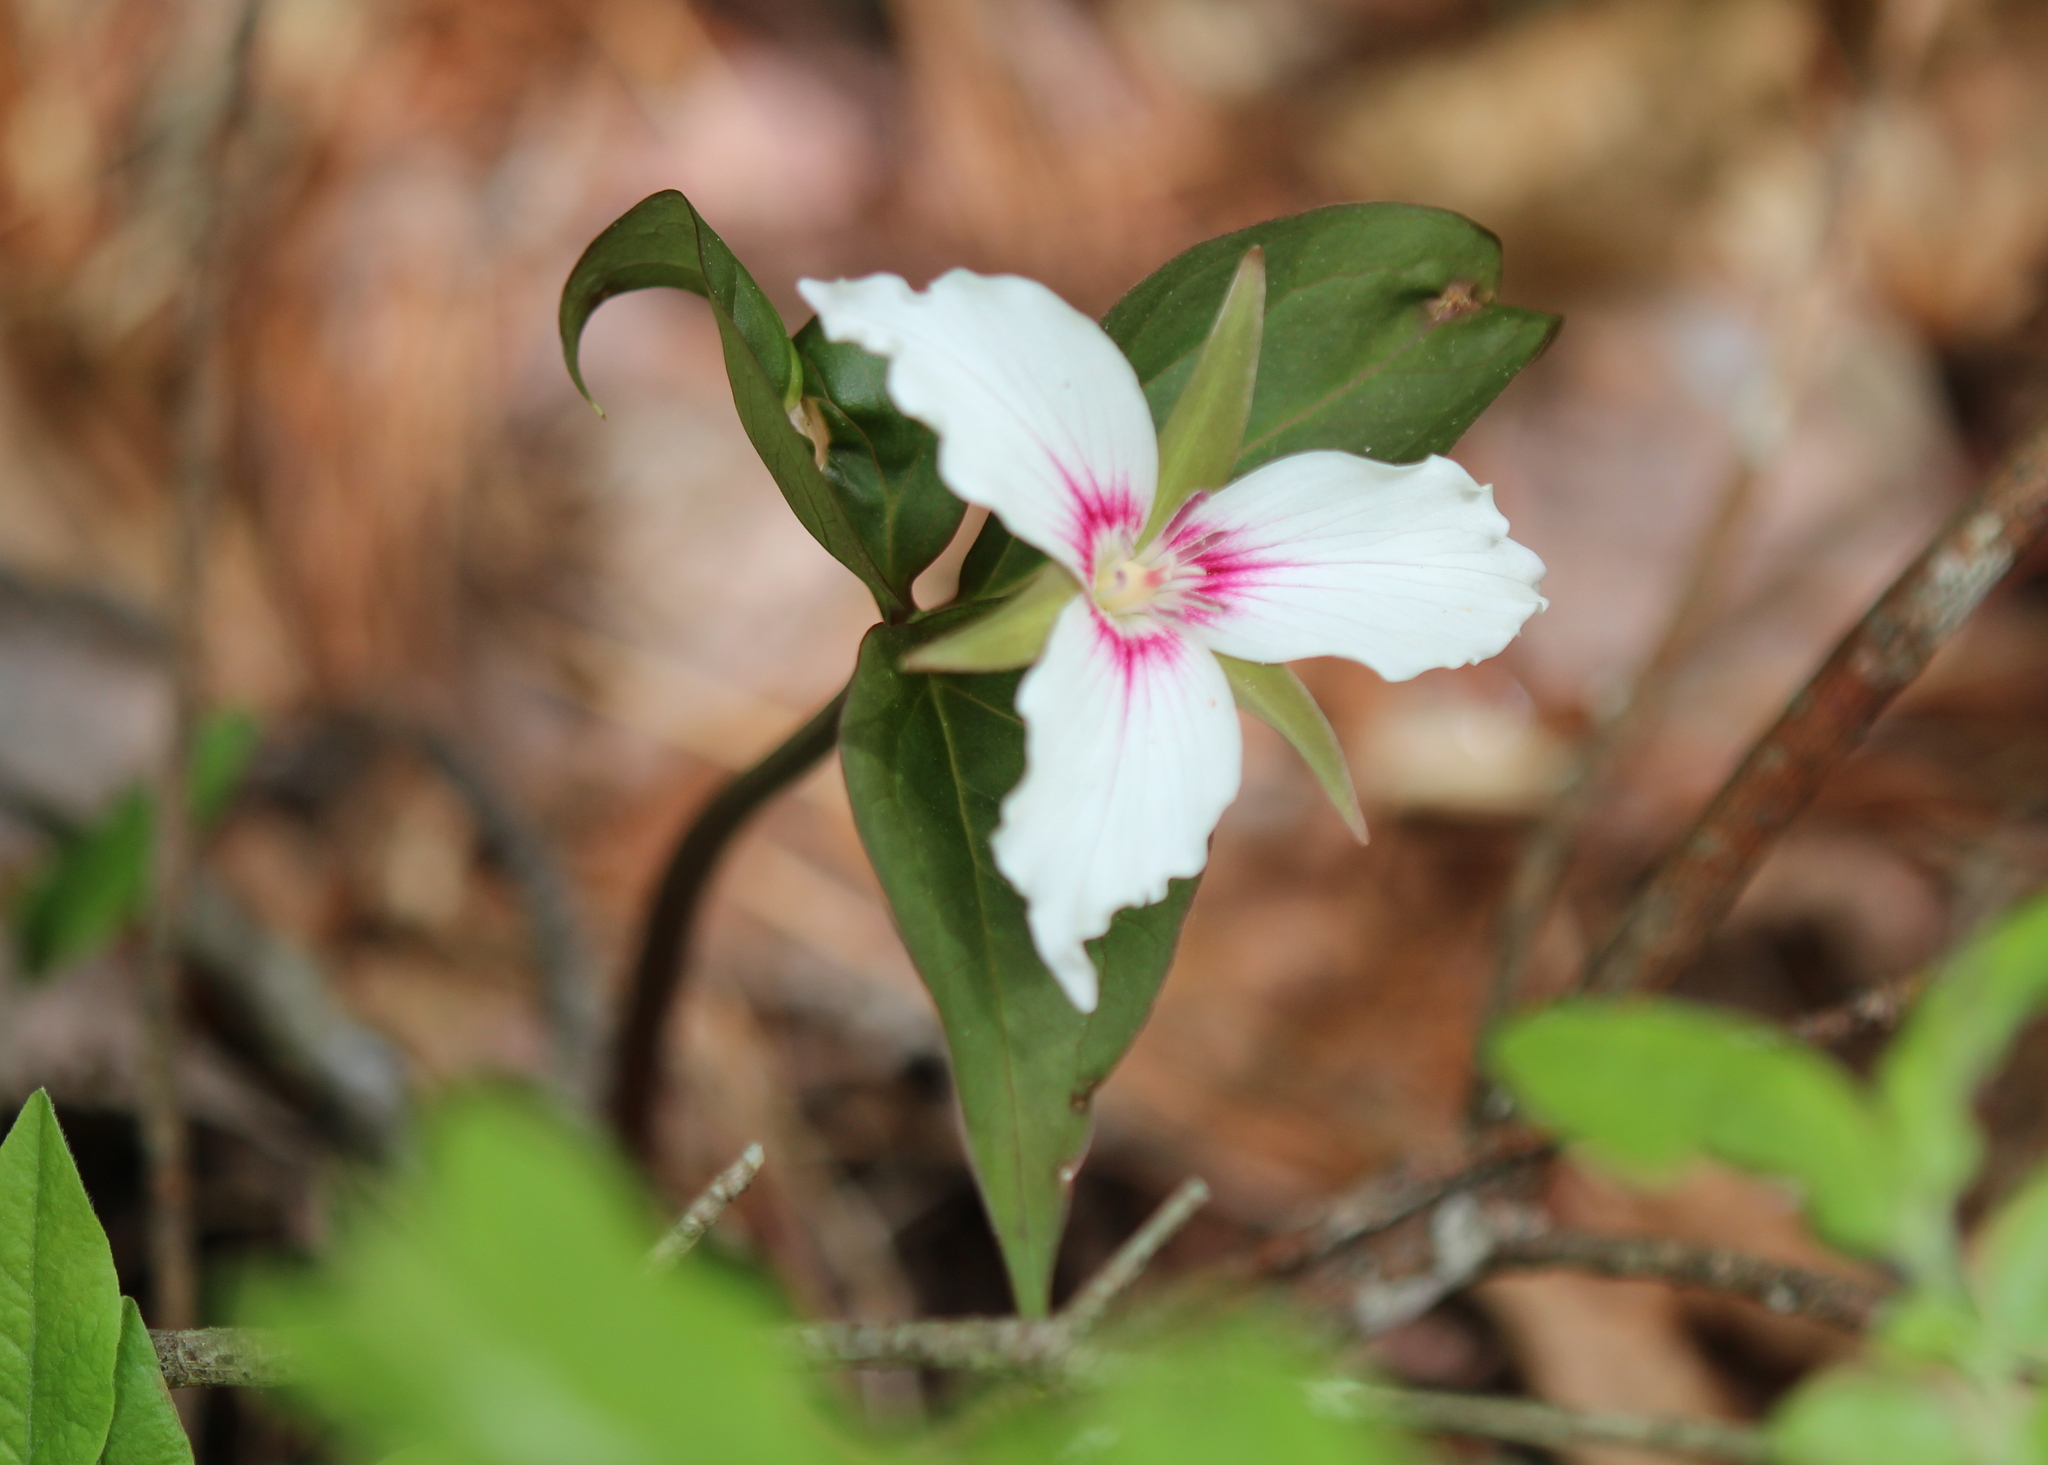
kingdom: Plantae
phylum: Tracheophyta
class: Liliopsida
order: Liliales
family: Melanthiaceae
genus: Trillium
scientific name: Trillium undulatum
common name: Paint trillium
